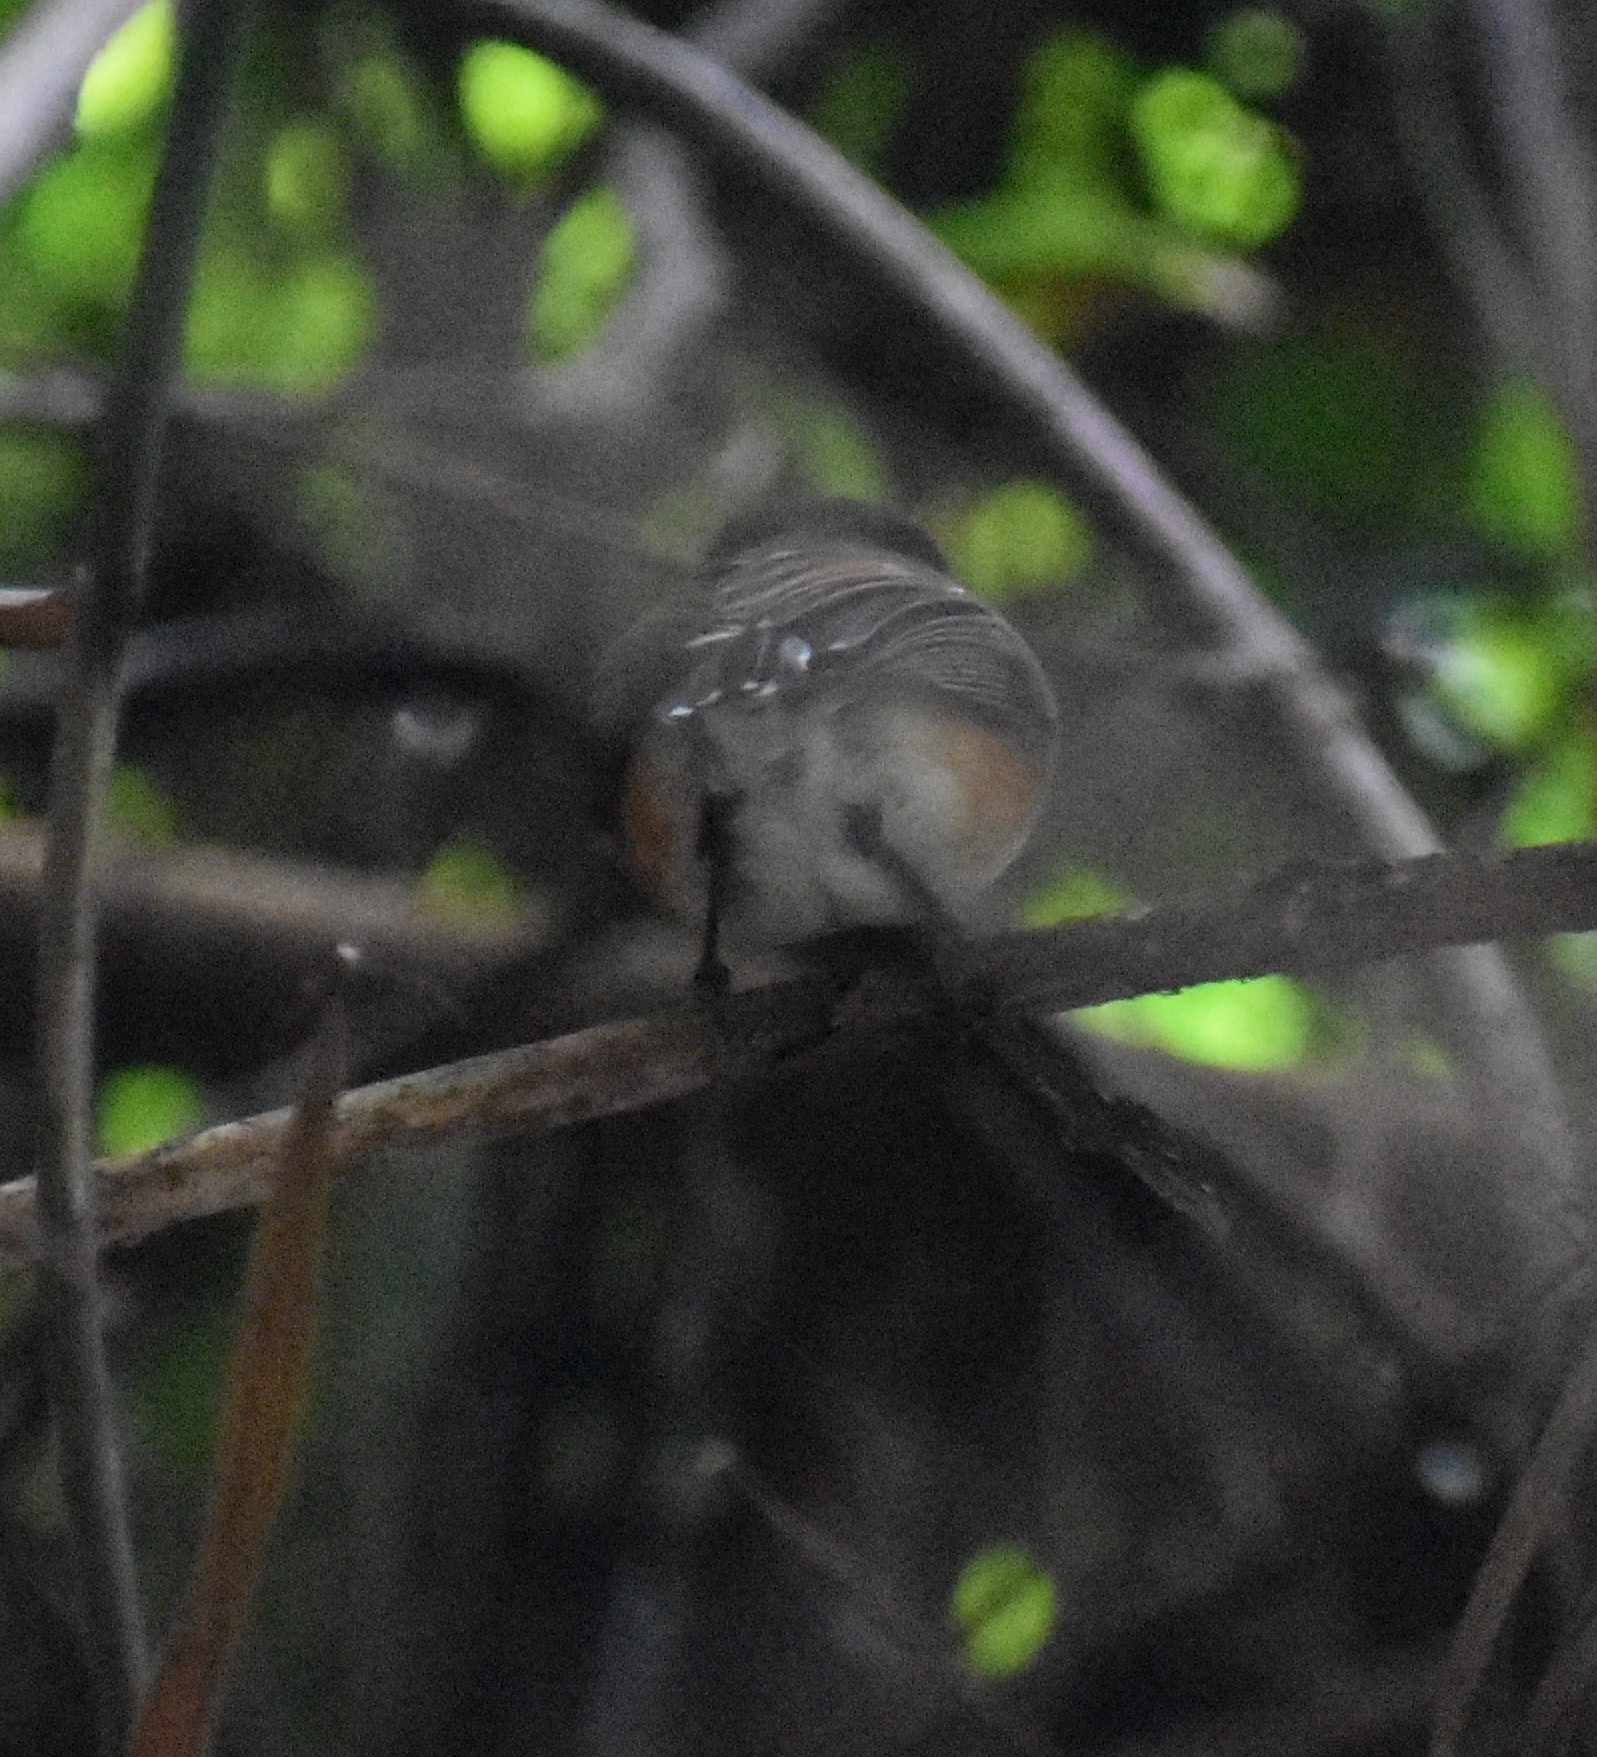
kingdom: Animalia
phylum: Chordata
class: Aves
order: Passeriformes
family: Platysteiridae
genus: Batis
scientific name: Batis capensis
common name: Cape batis
